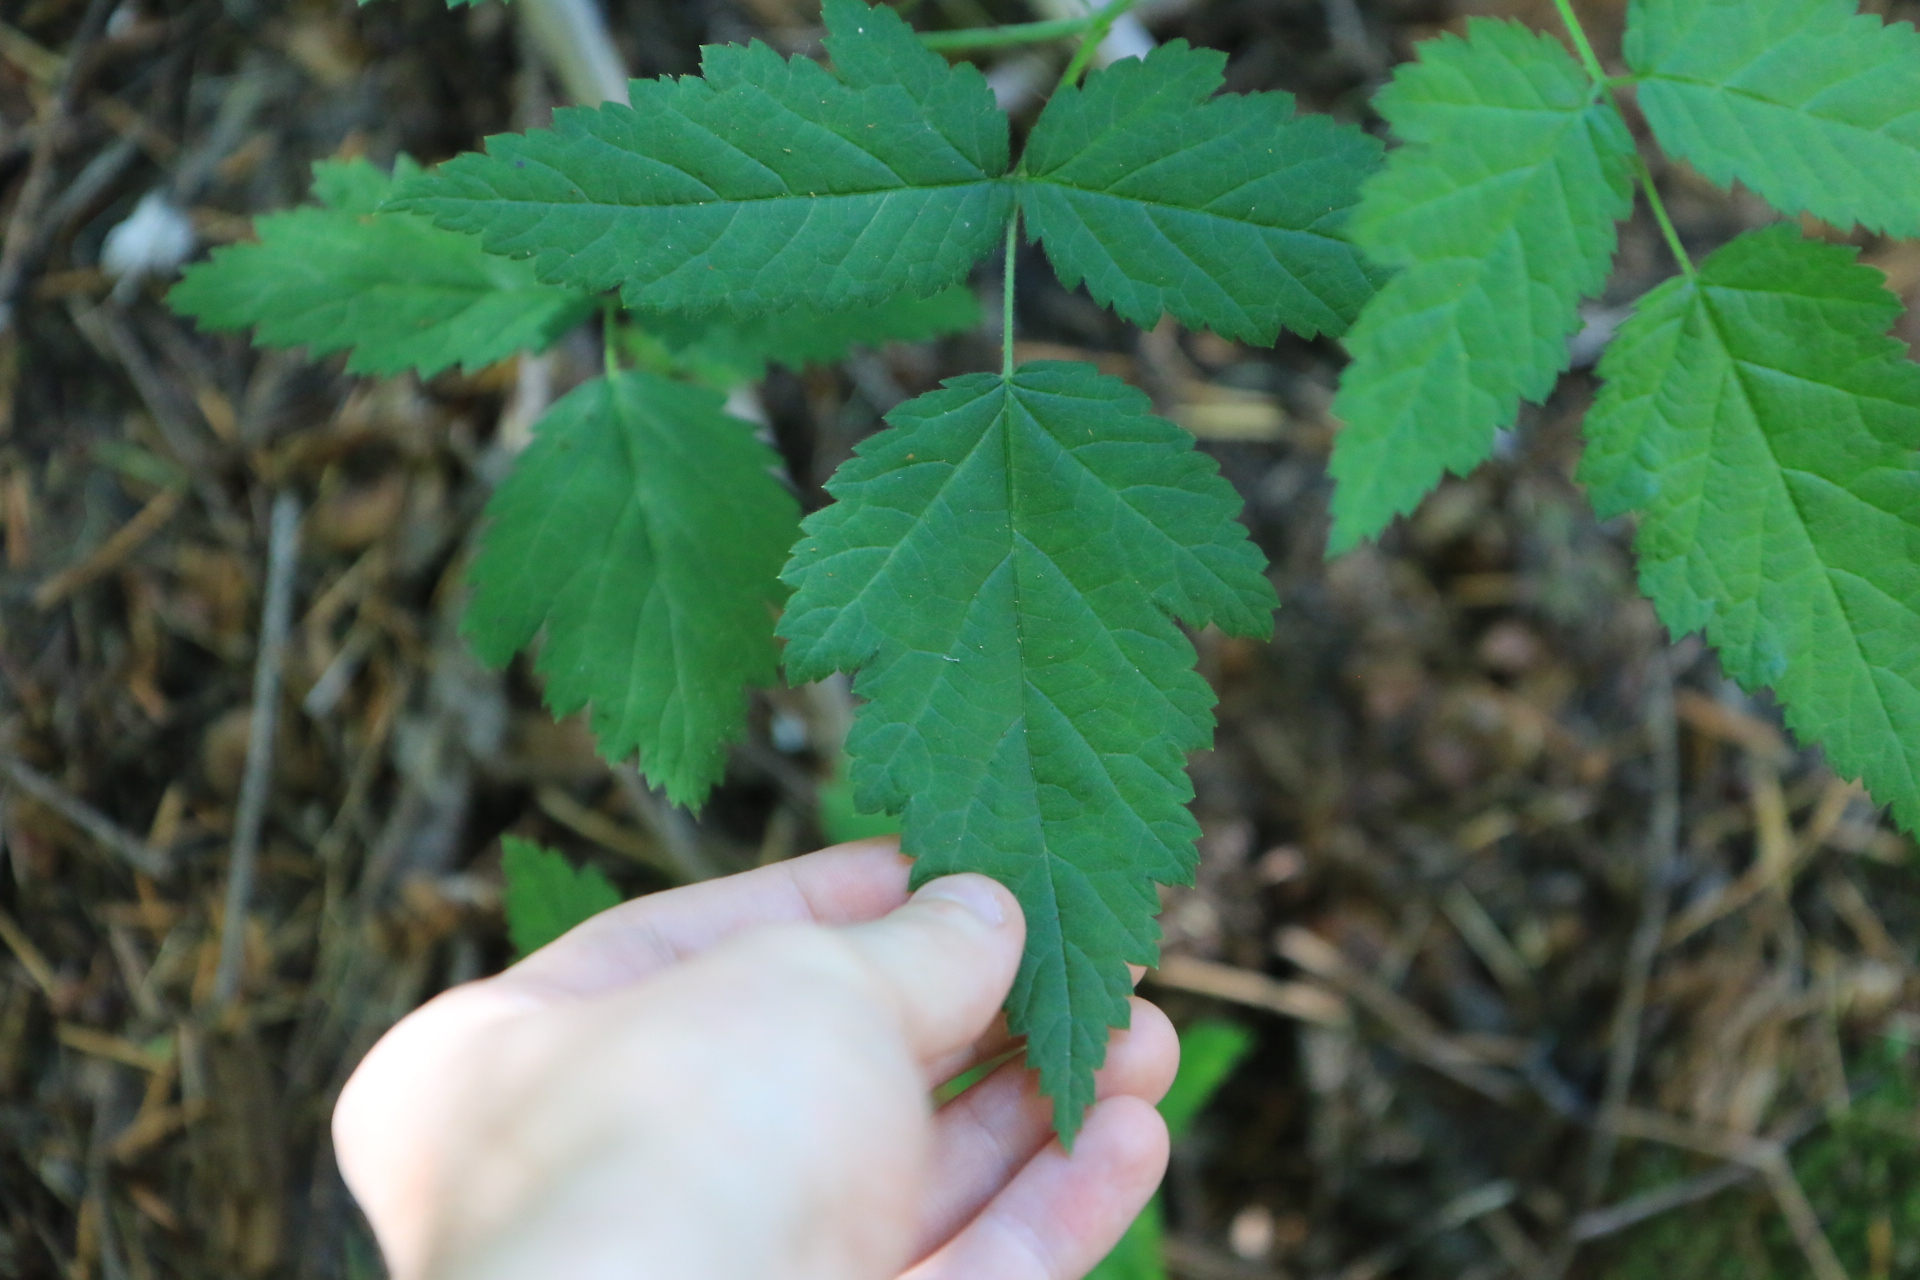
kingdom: Plantae
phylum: Tracheophyta
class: Magnoliopsida
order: Rosales
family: Rosaceae
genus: Rubus
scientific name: Rubus ursinus
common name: Pacific blackberry
